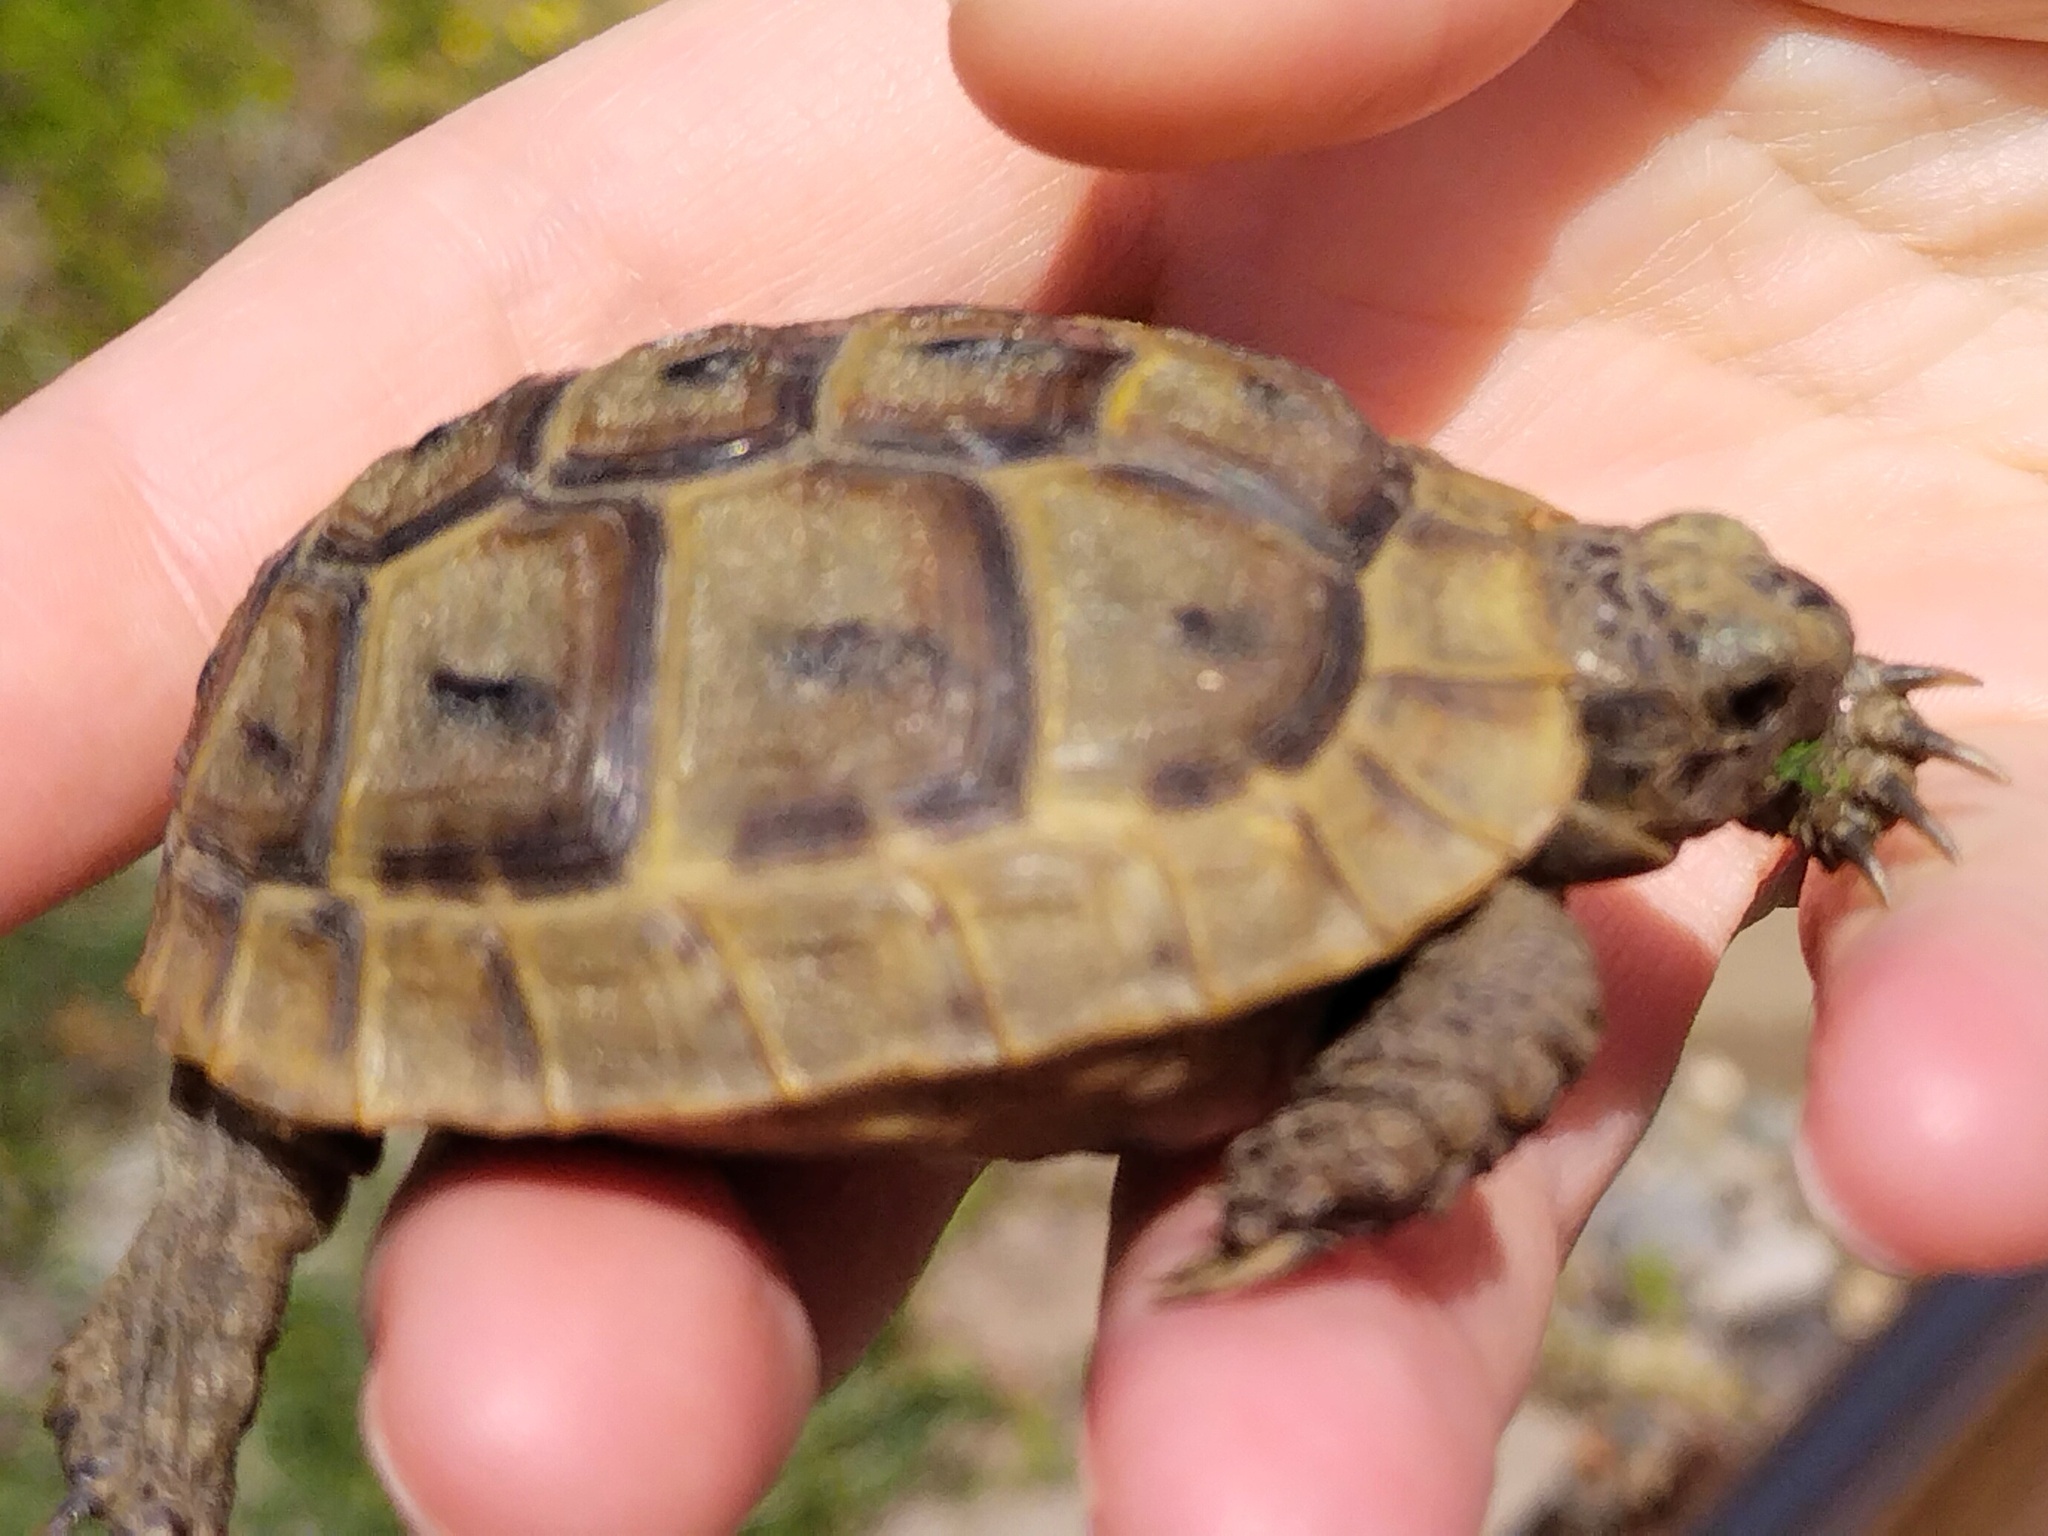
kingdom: Animalia
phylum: Chordata
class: Testudines
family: Testudinidae
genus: Testudo
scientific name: Testudo graeca
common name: Common tortoise
